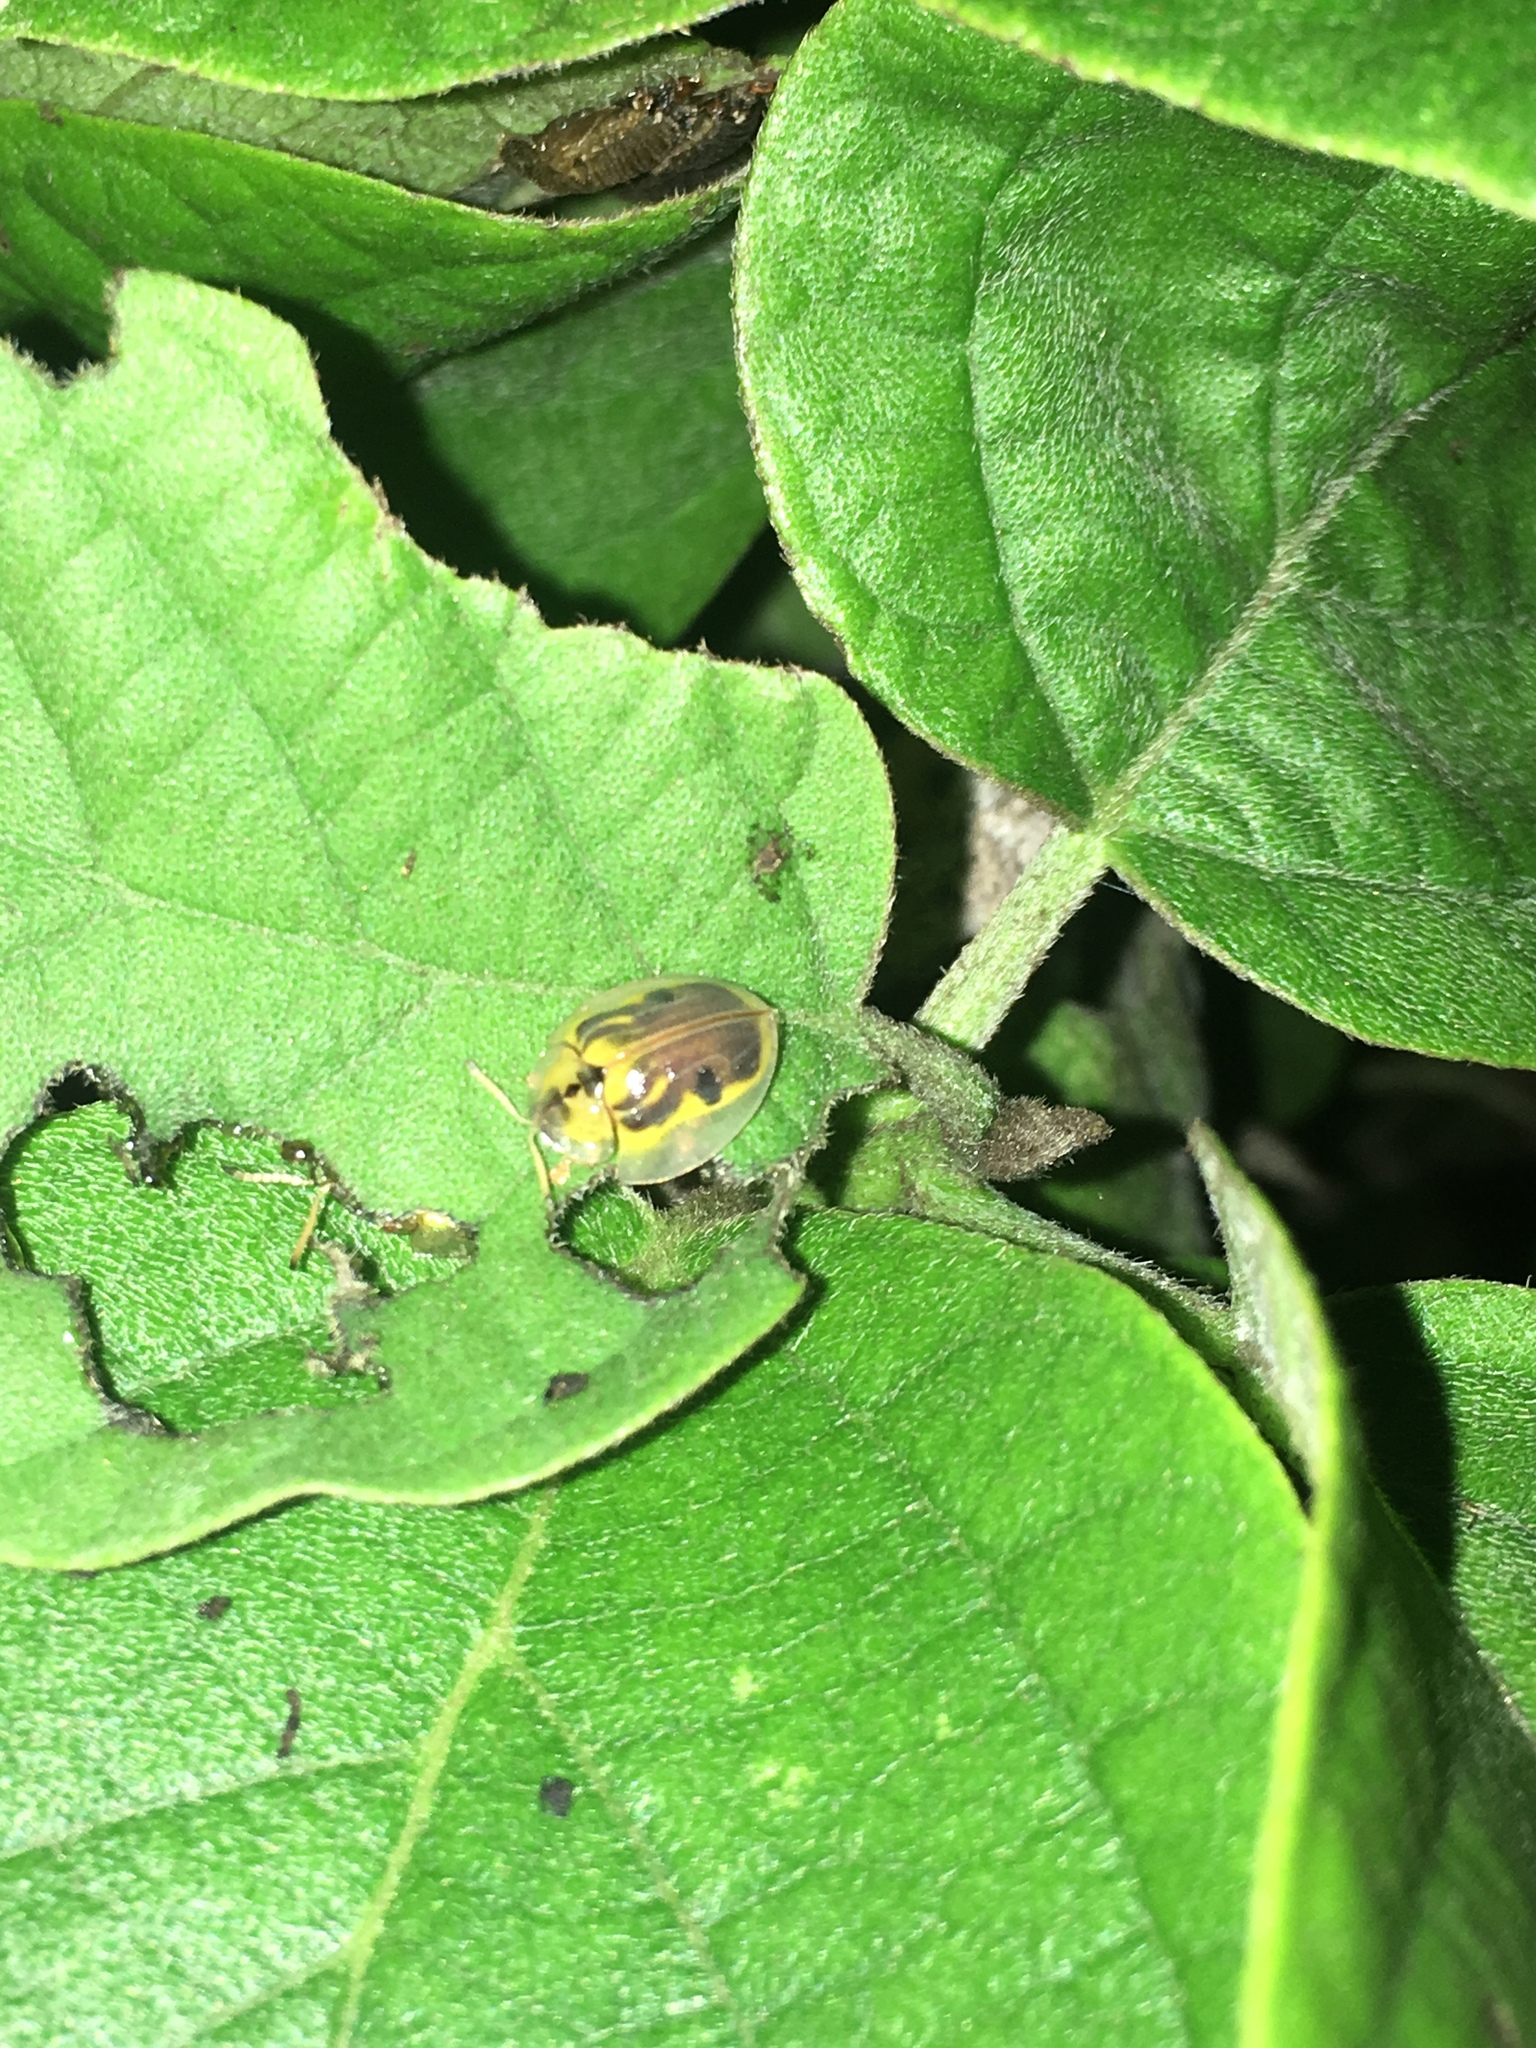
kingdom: Animalia
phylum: Arthropoda
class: Insecta
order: Coleoptera
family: Chrysomelidae
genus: Eurypepla
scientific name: Eurypepla calochroma
